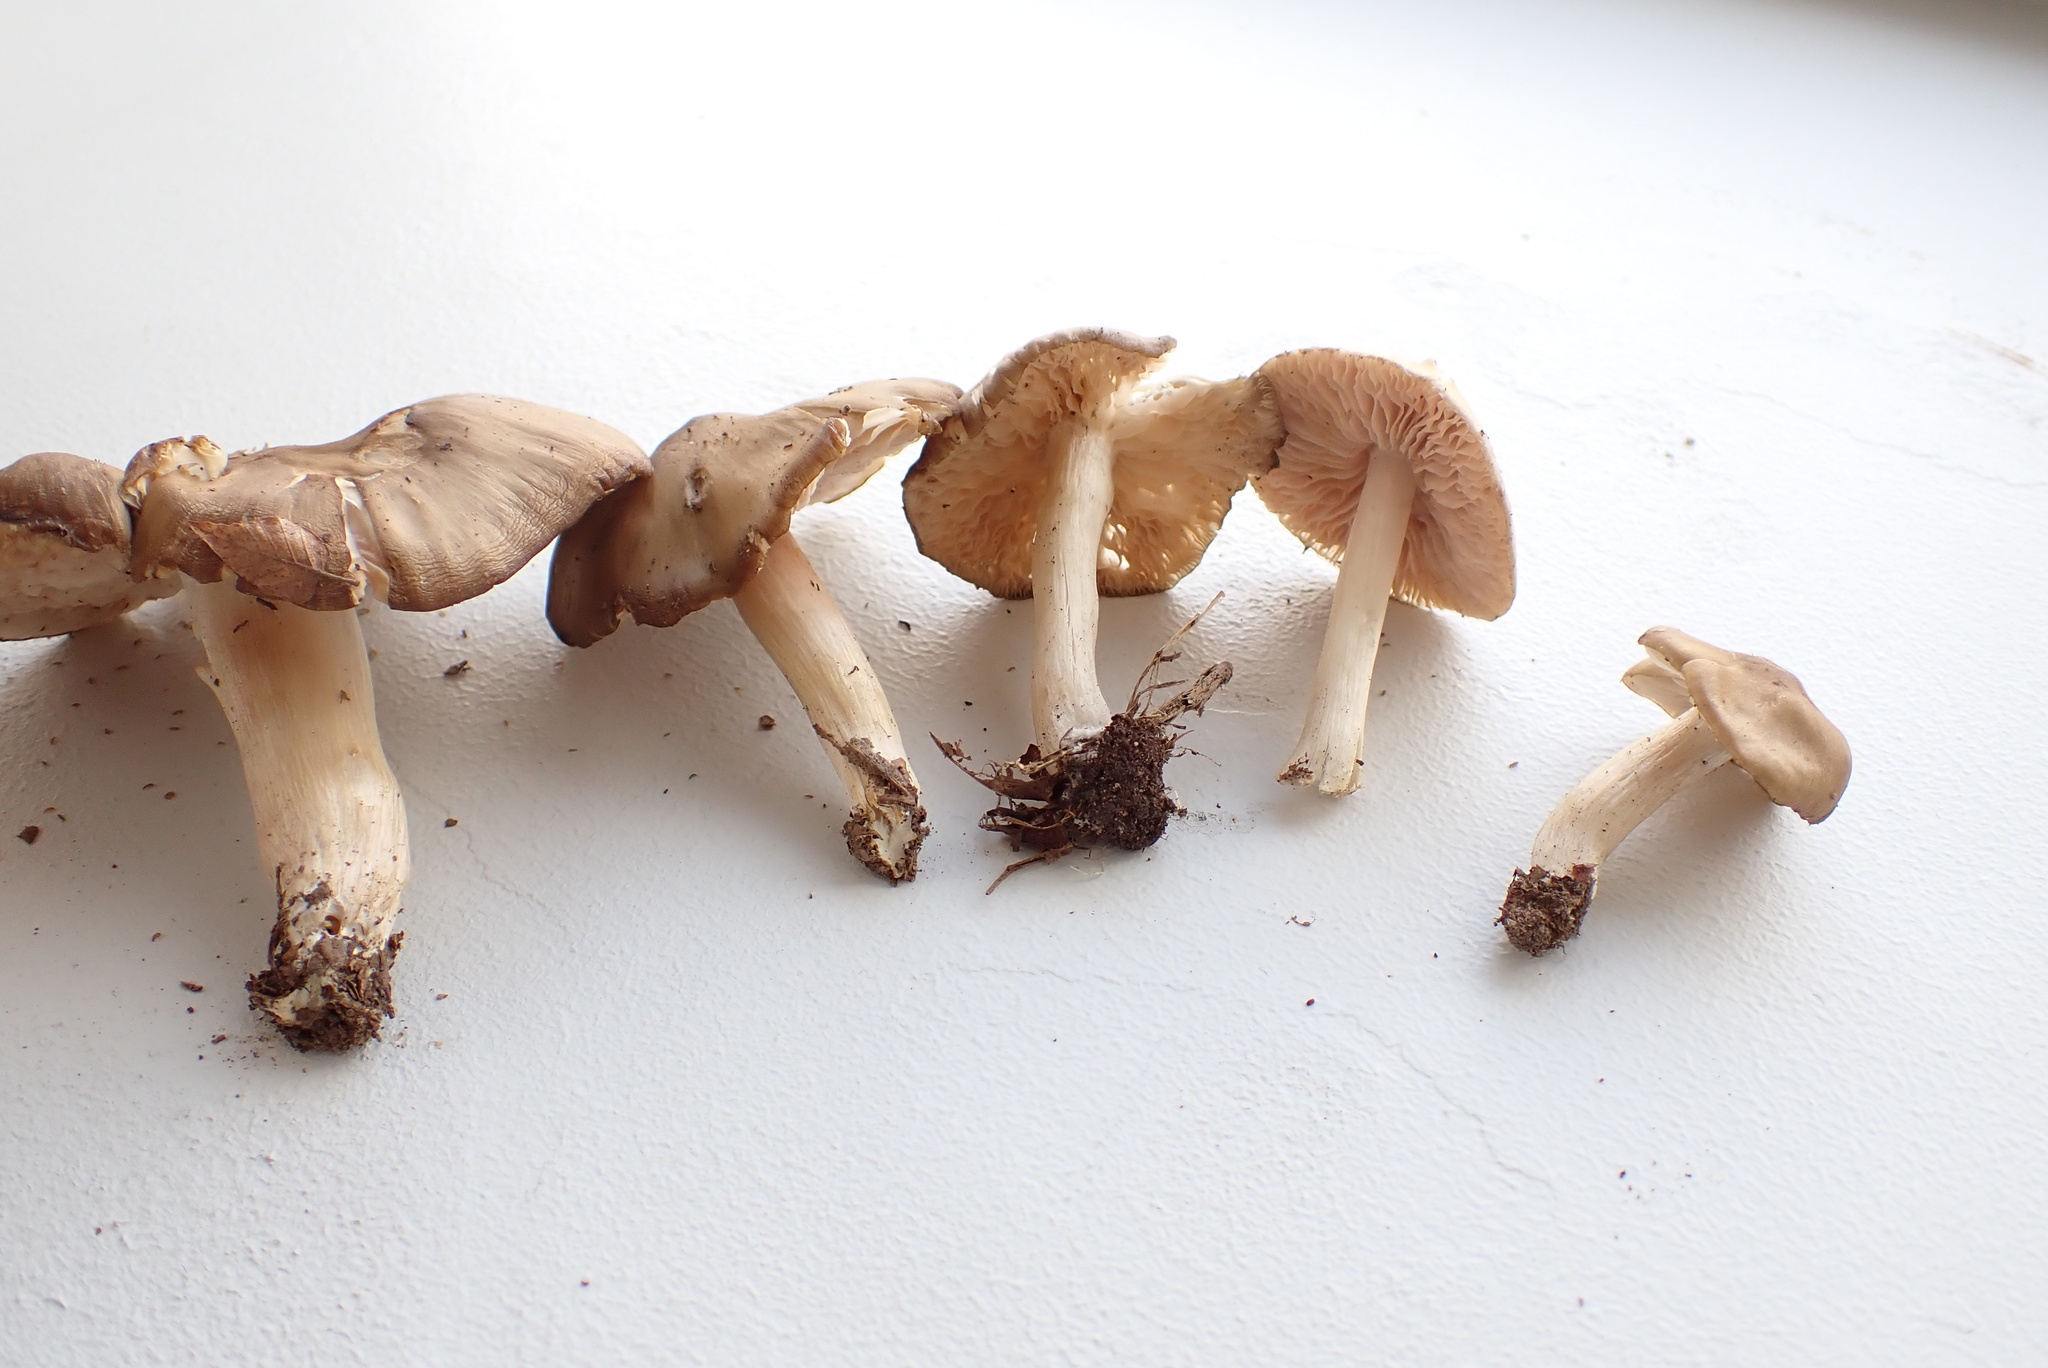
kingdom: Fungi
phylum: Basidiomycota
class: Agaricomycetes
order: Agaricales
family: Entolomataceae
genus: Entoloma
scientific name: Entoloma griseum
